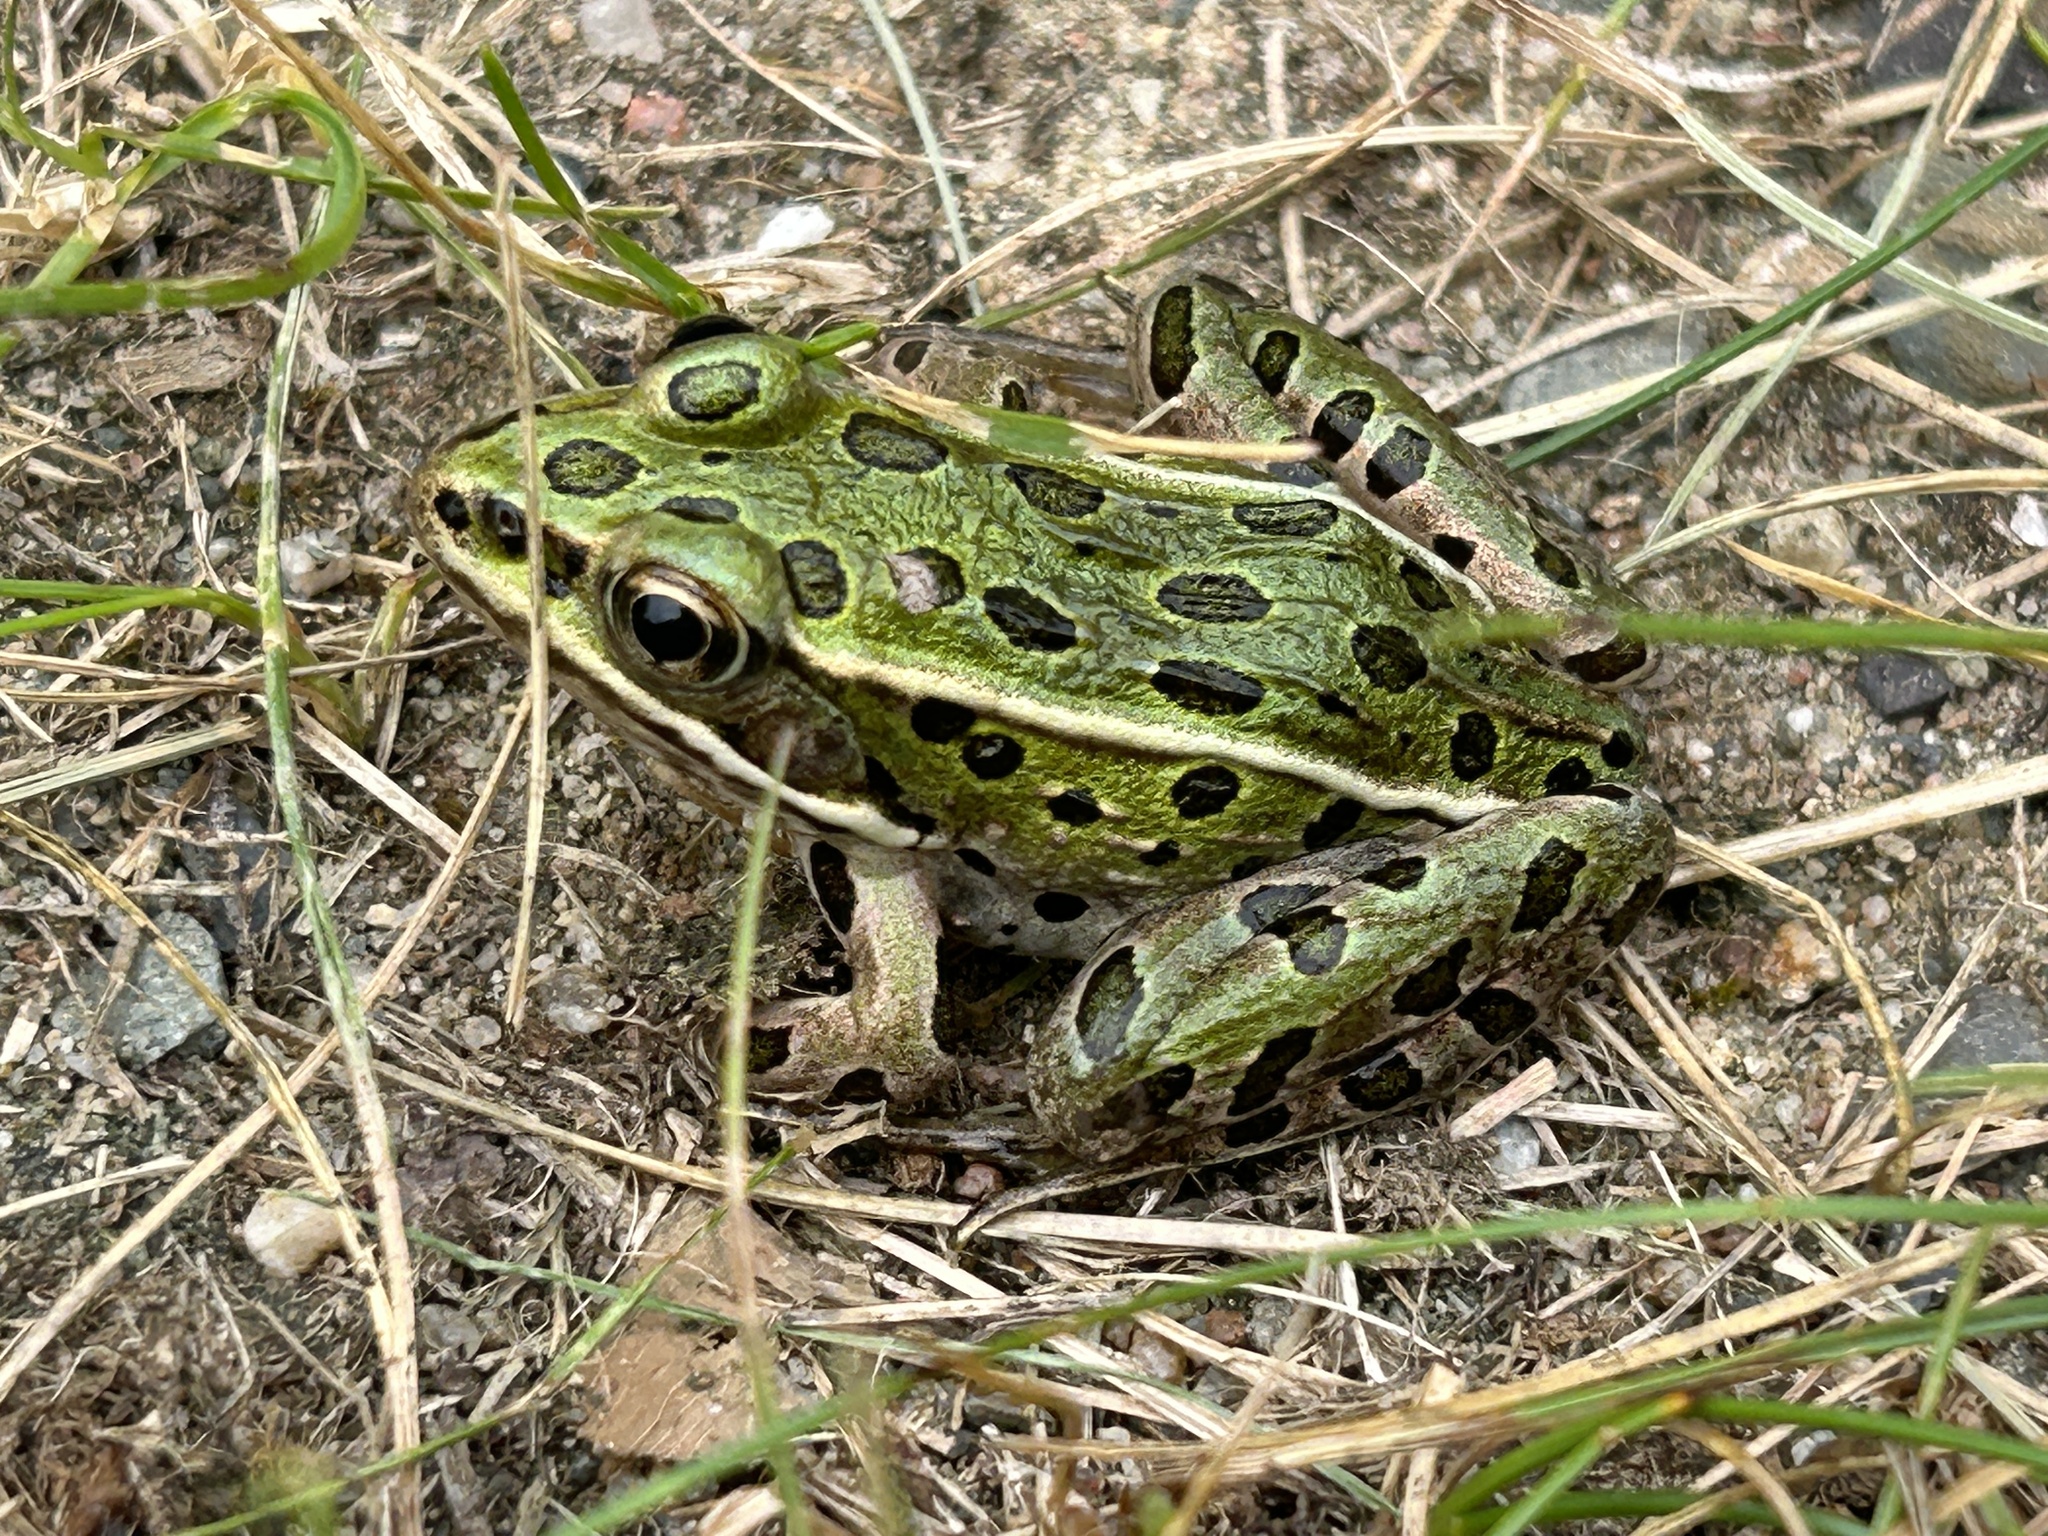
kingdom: Animalia
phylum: Chordata
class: Amphibia
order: Anura
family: Ranidae
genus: Lithobates
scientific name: Lithobates pipiens
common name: Northern leopard frog
